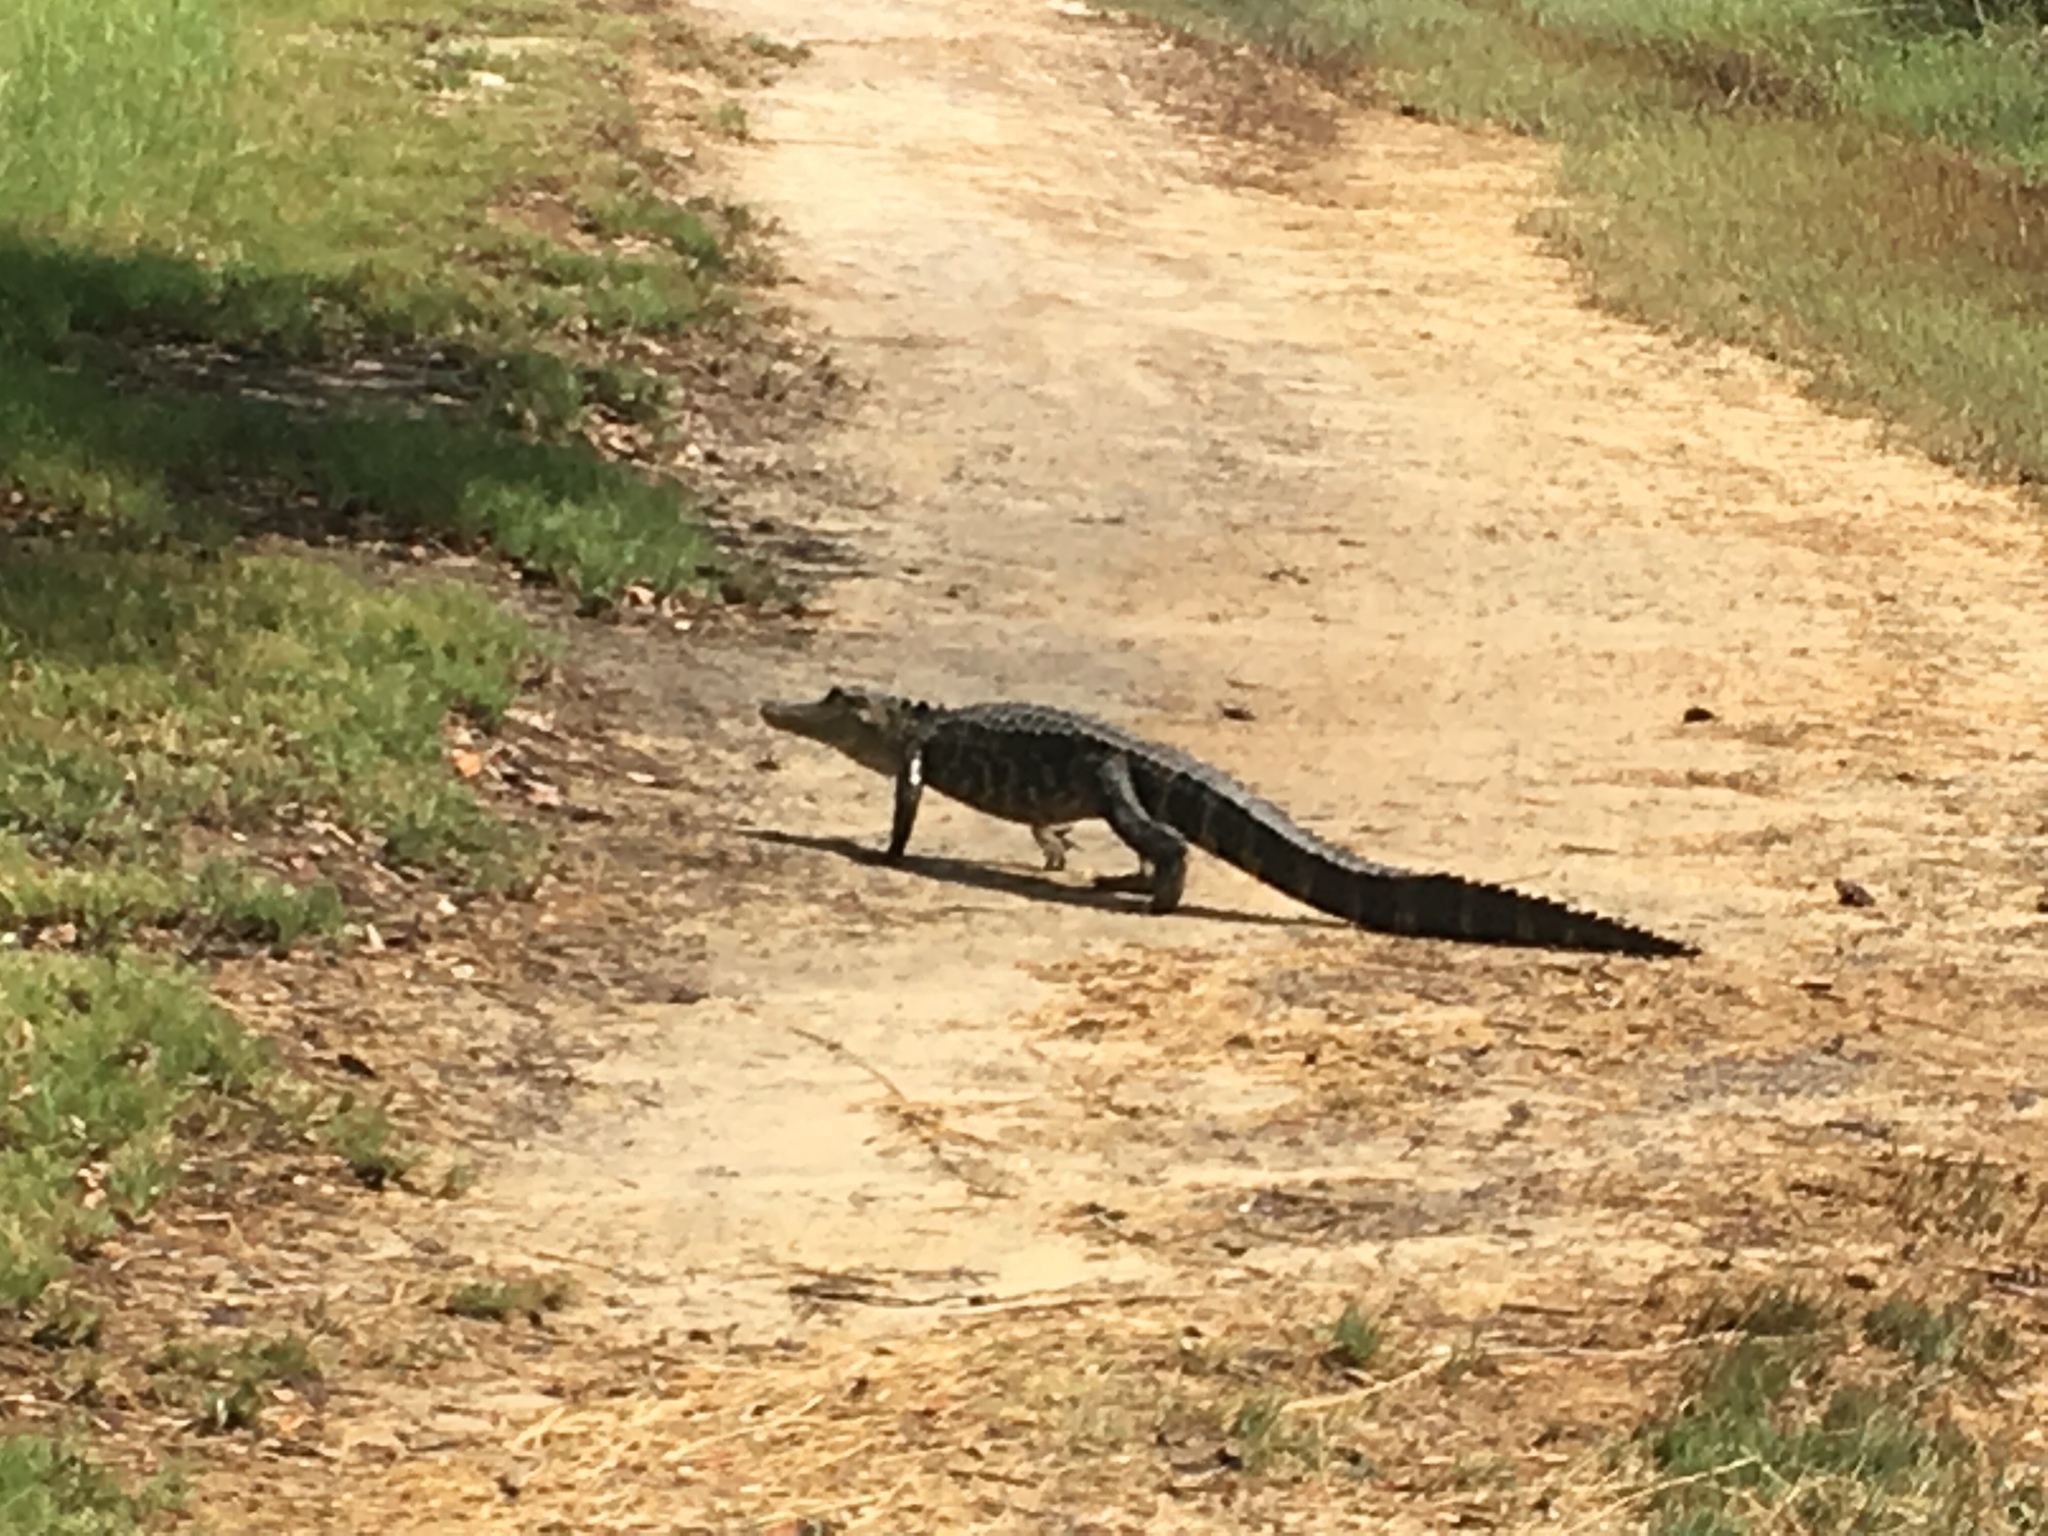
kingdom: Animalia
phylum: Chordata
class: Crocodylia
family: Alligatoridae
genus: Alligator
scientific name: Alligator mississippiensis
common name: American alligator
